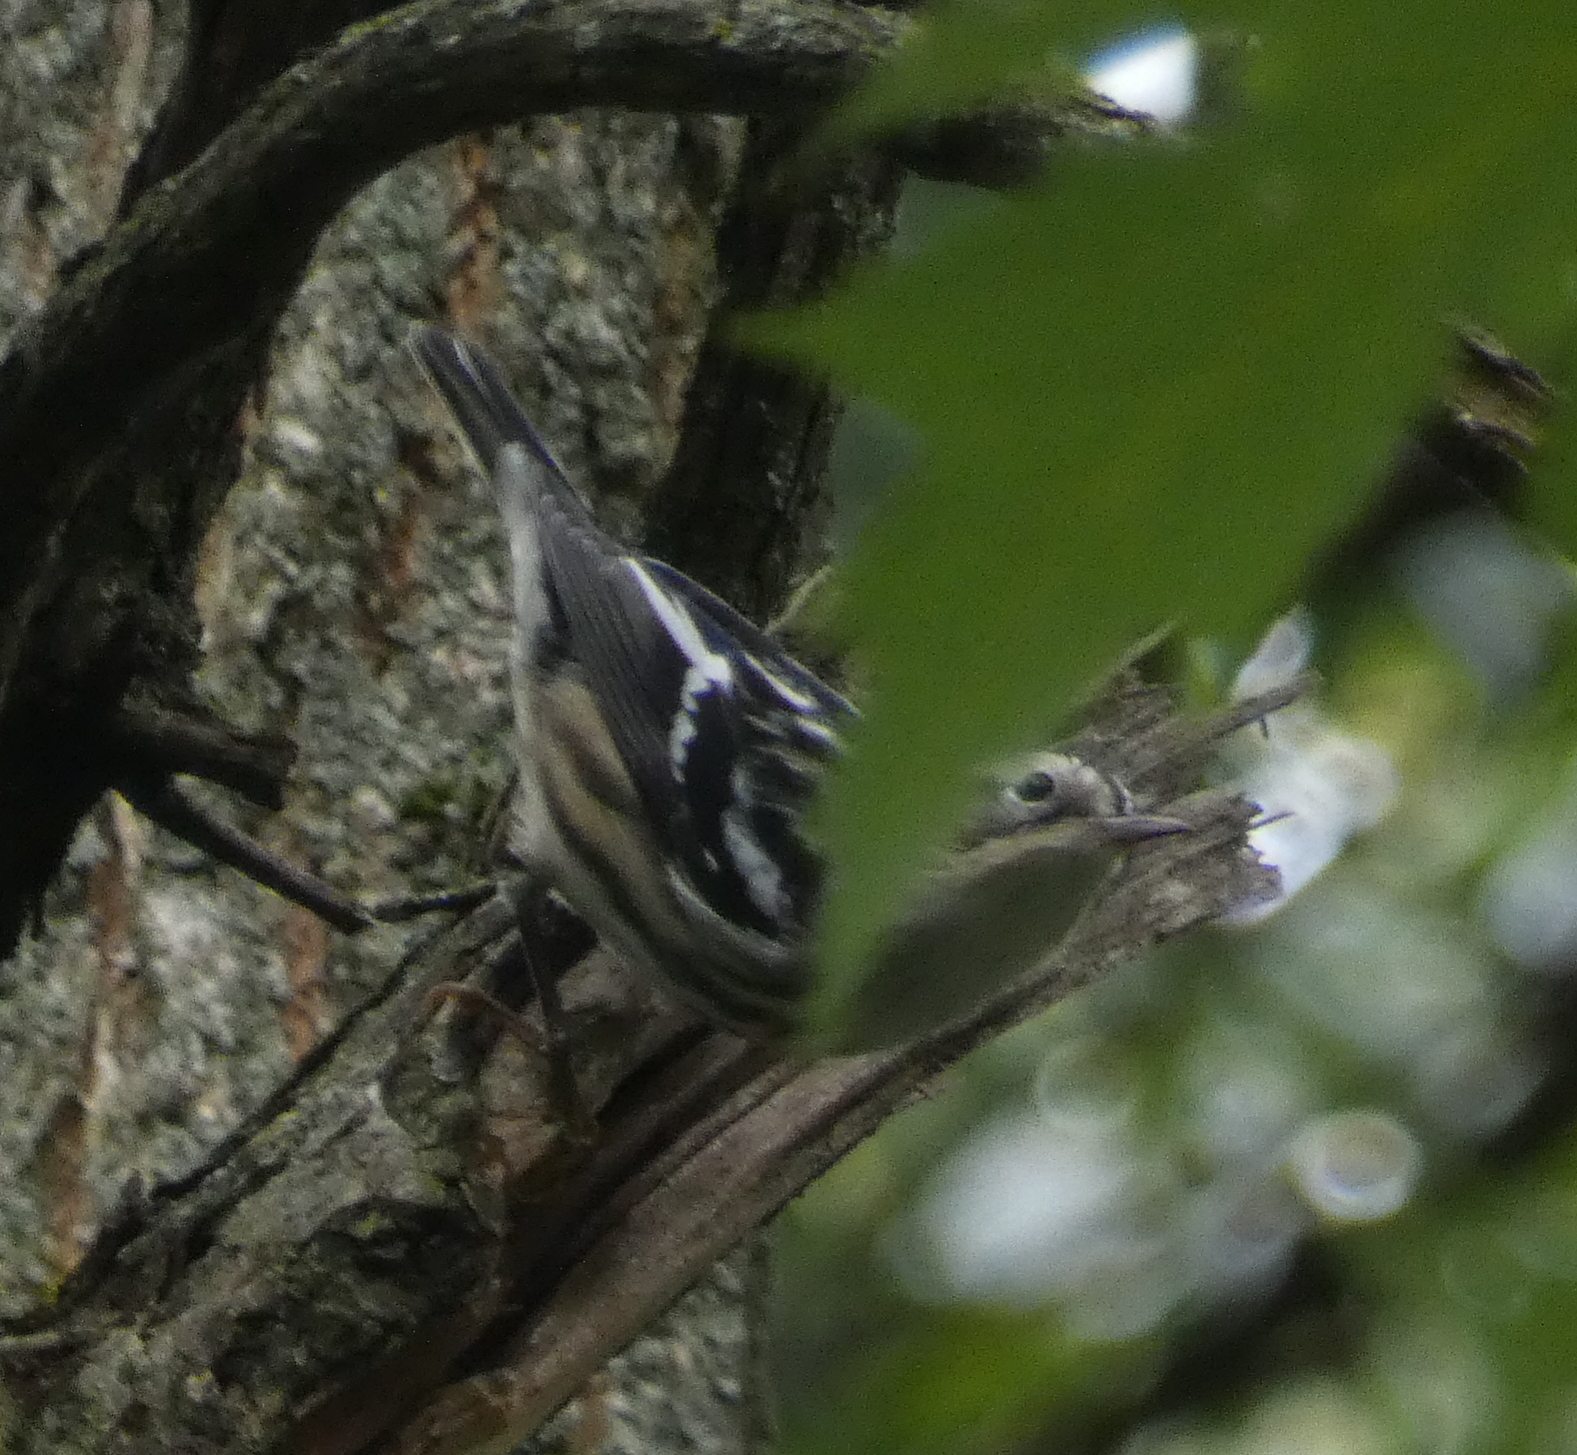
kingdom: Animalia
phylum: Chordata
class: Aves
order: Passeriformes
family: Parulidae
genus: Mniotilta
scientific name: Mniotilta varia
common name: Black-and-white warbler
